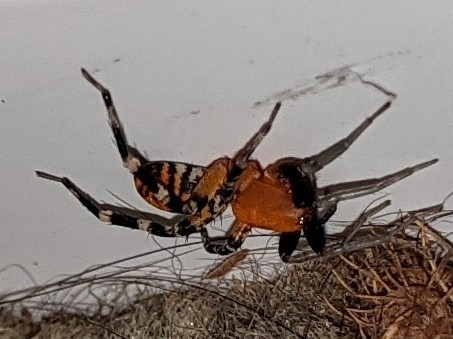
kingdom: Animalia
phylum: Arthropoda
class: Arachnida
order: Araneae
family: Corinnidae
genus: Castianeira
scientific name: Castianeira amoena
